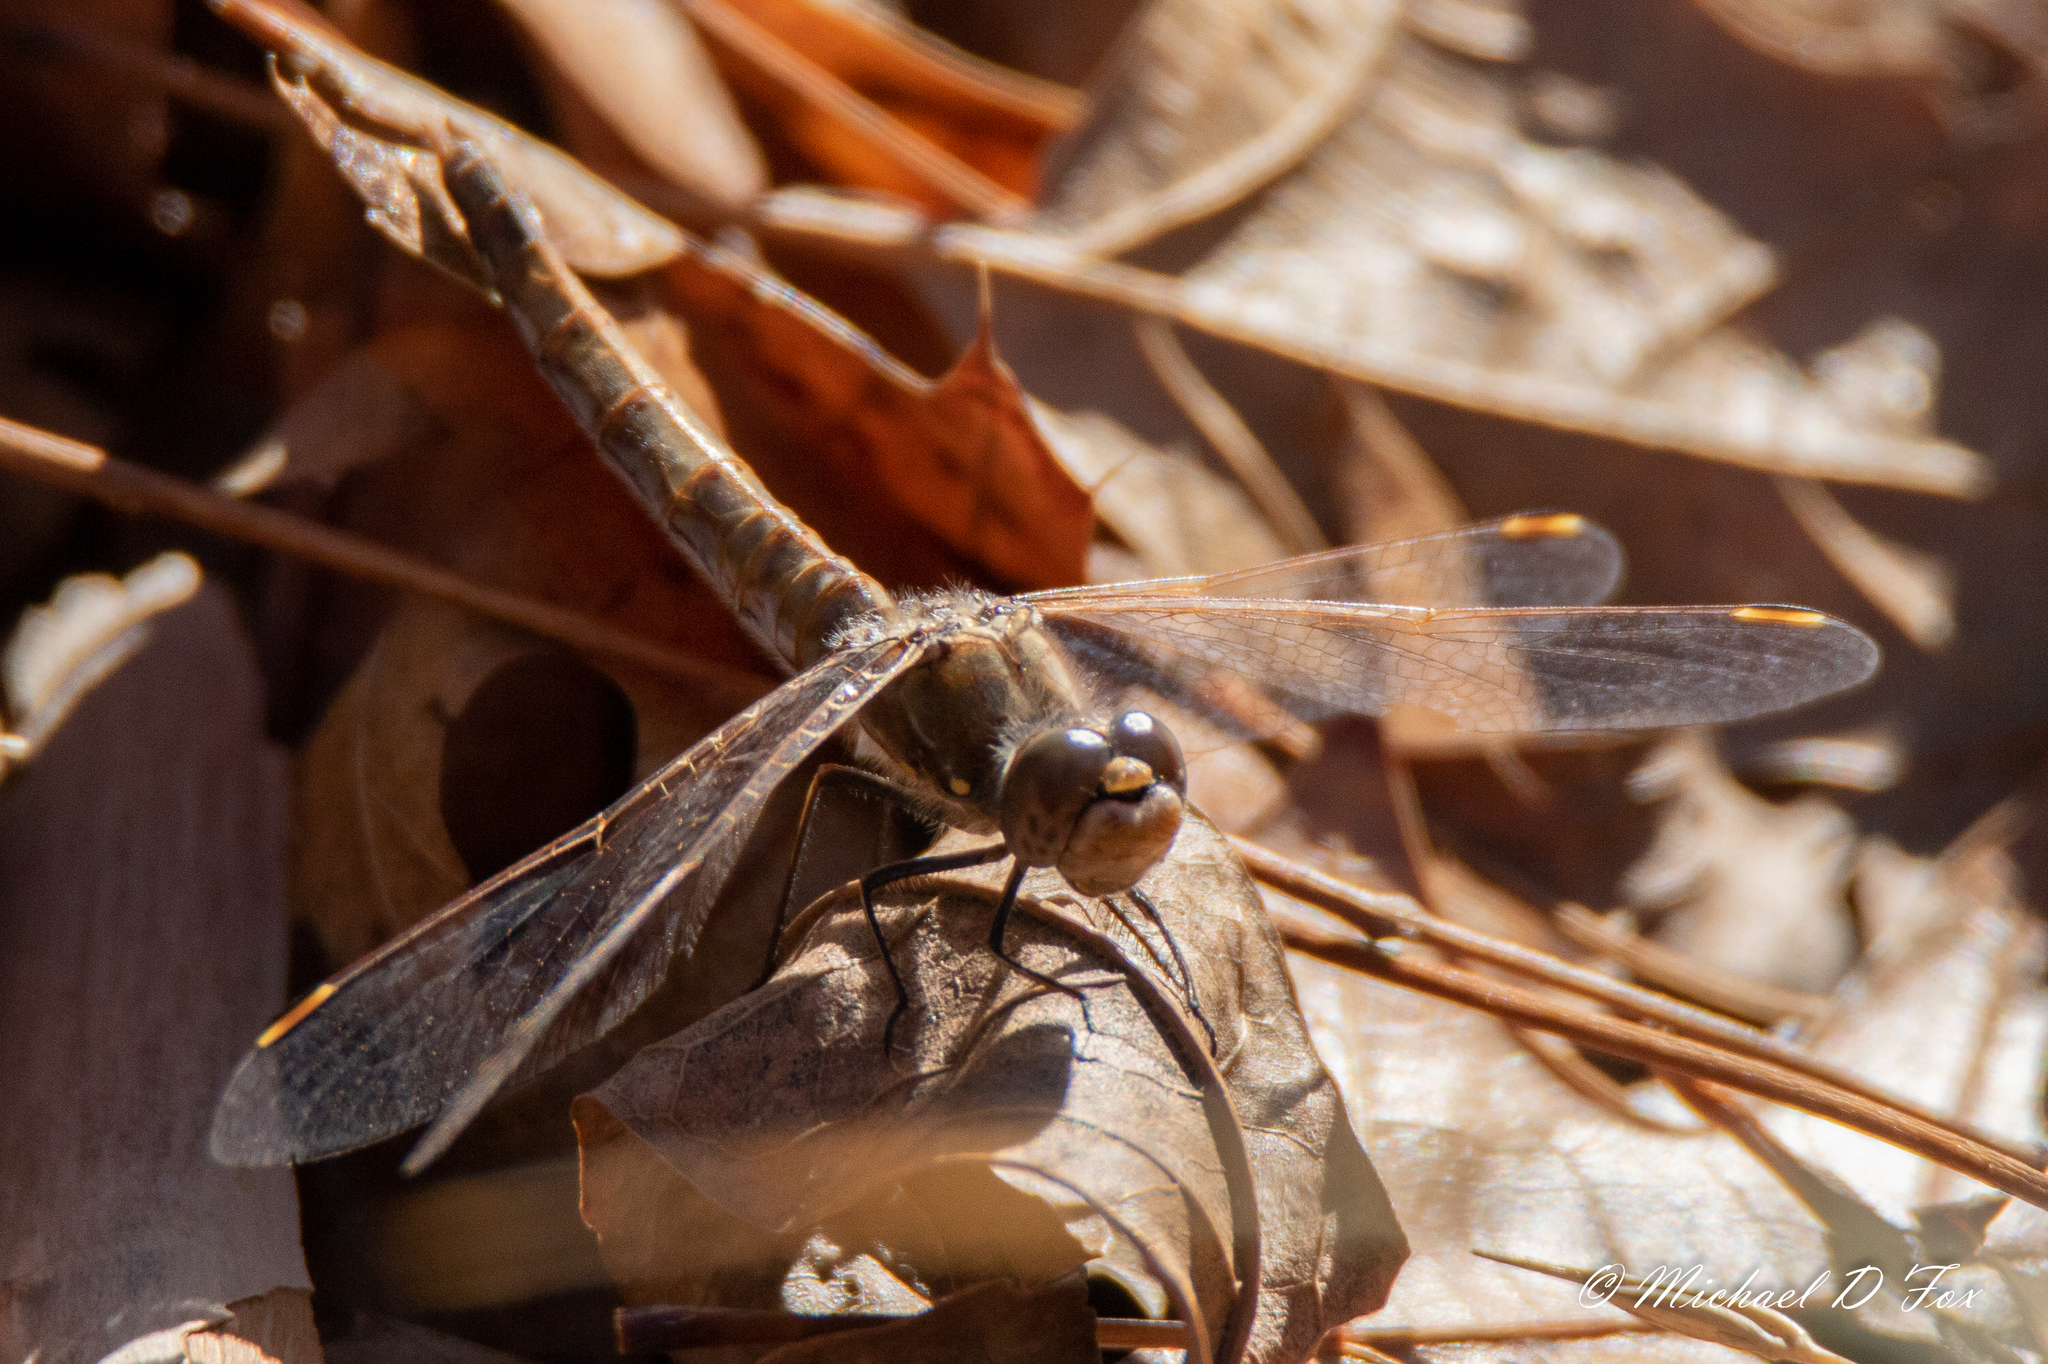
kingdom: Animalia
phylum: Arthropoda
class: Insecta
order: Odonata
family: Libellulidae
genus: Sympetrum
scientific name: Sympetrum corruptum
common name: Variegated meadowhawk
